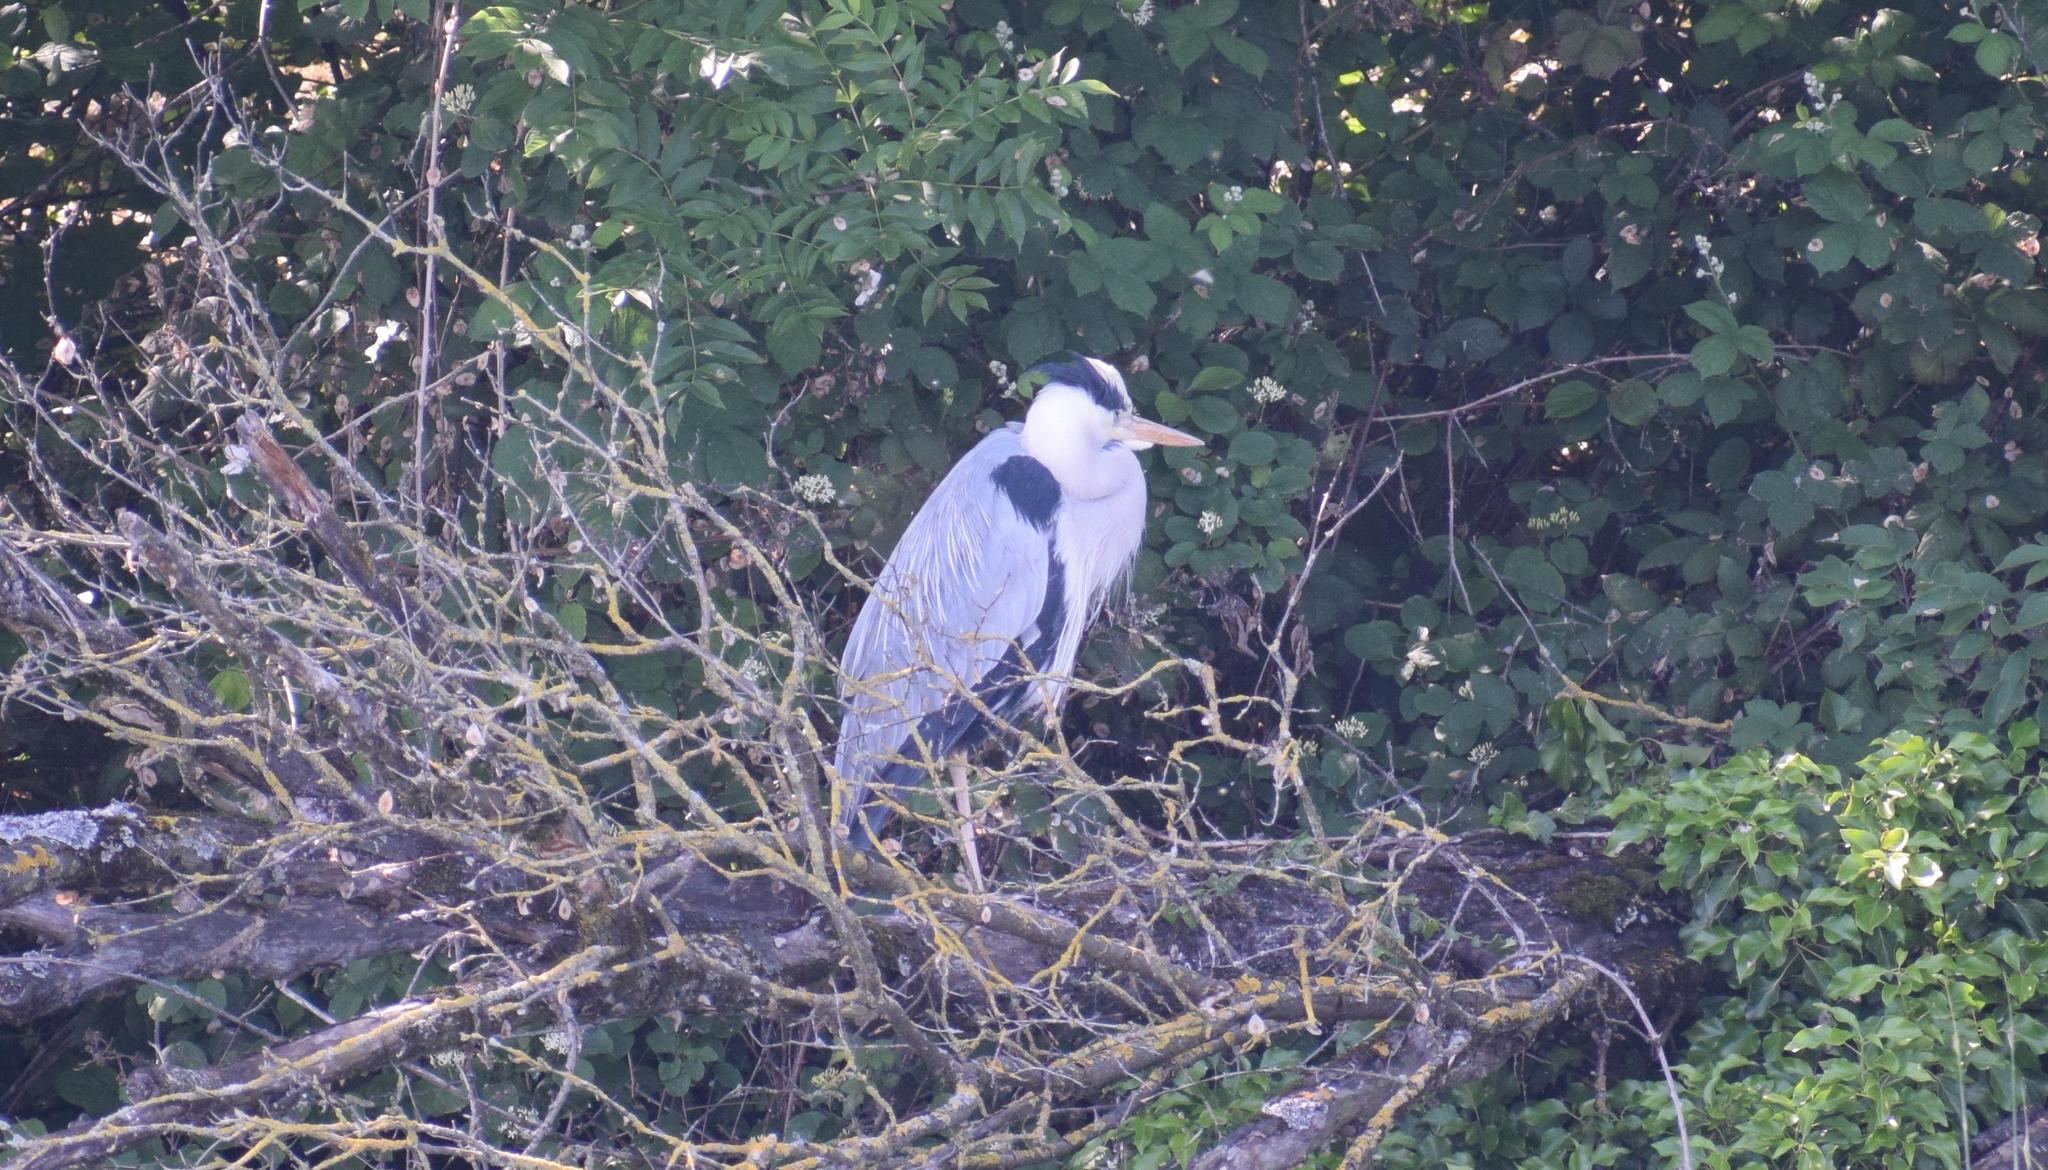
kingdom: Animalia
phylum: Chordata
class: Aves
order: Pelecaniformes
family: Ardeidae
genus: Ardea
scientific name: Ardea cinerea
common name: Grey heron
